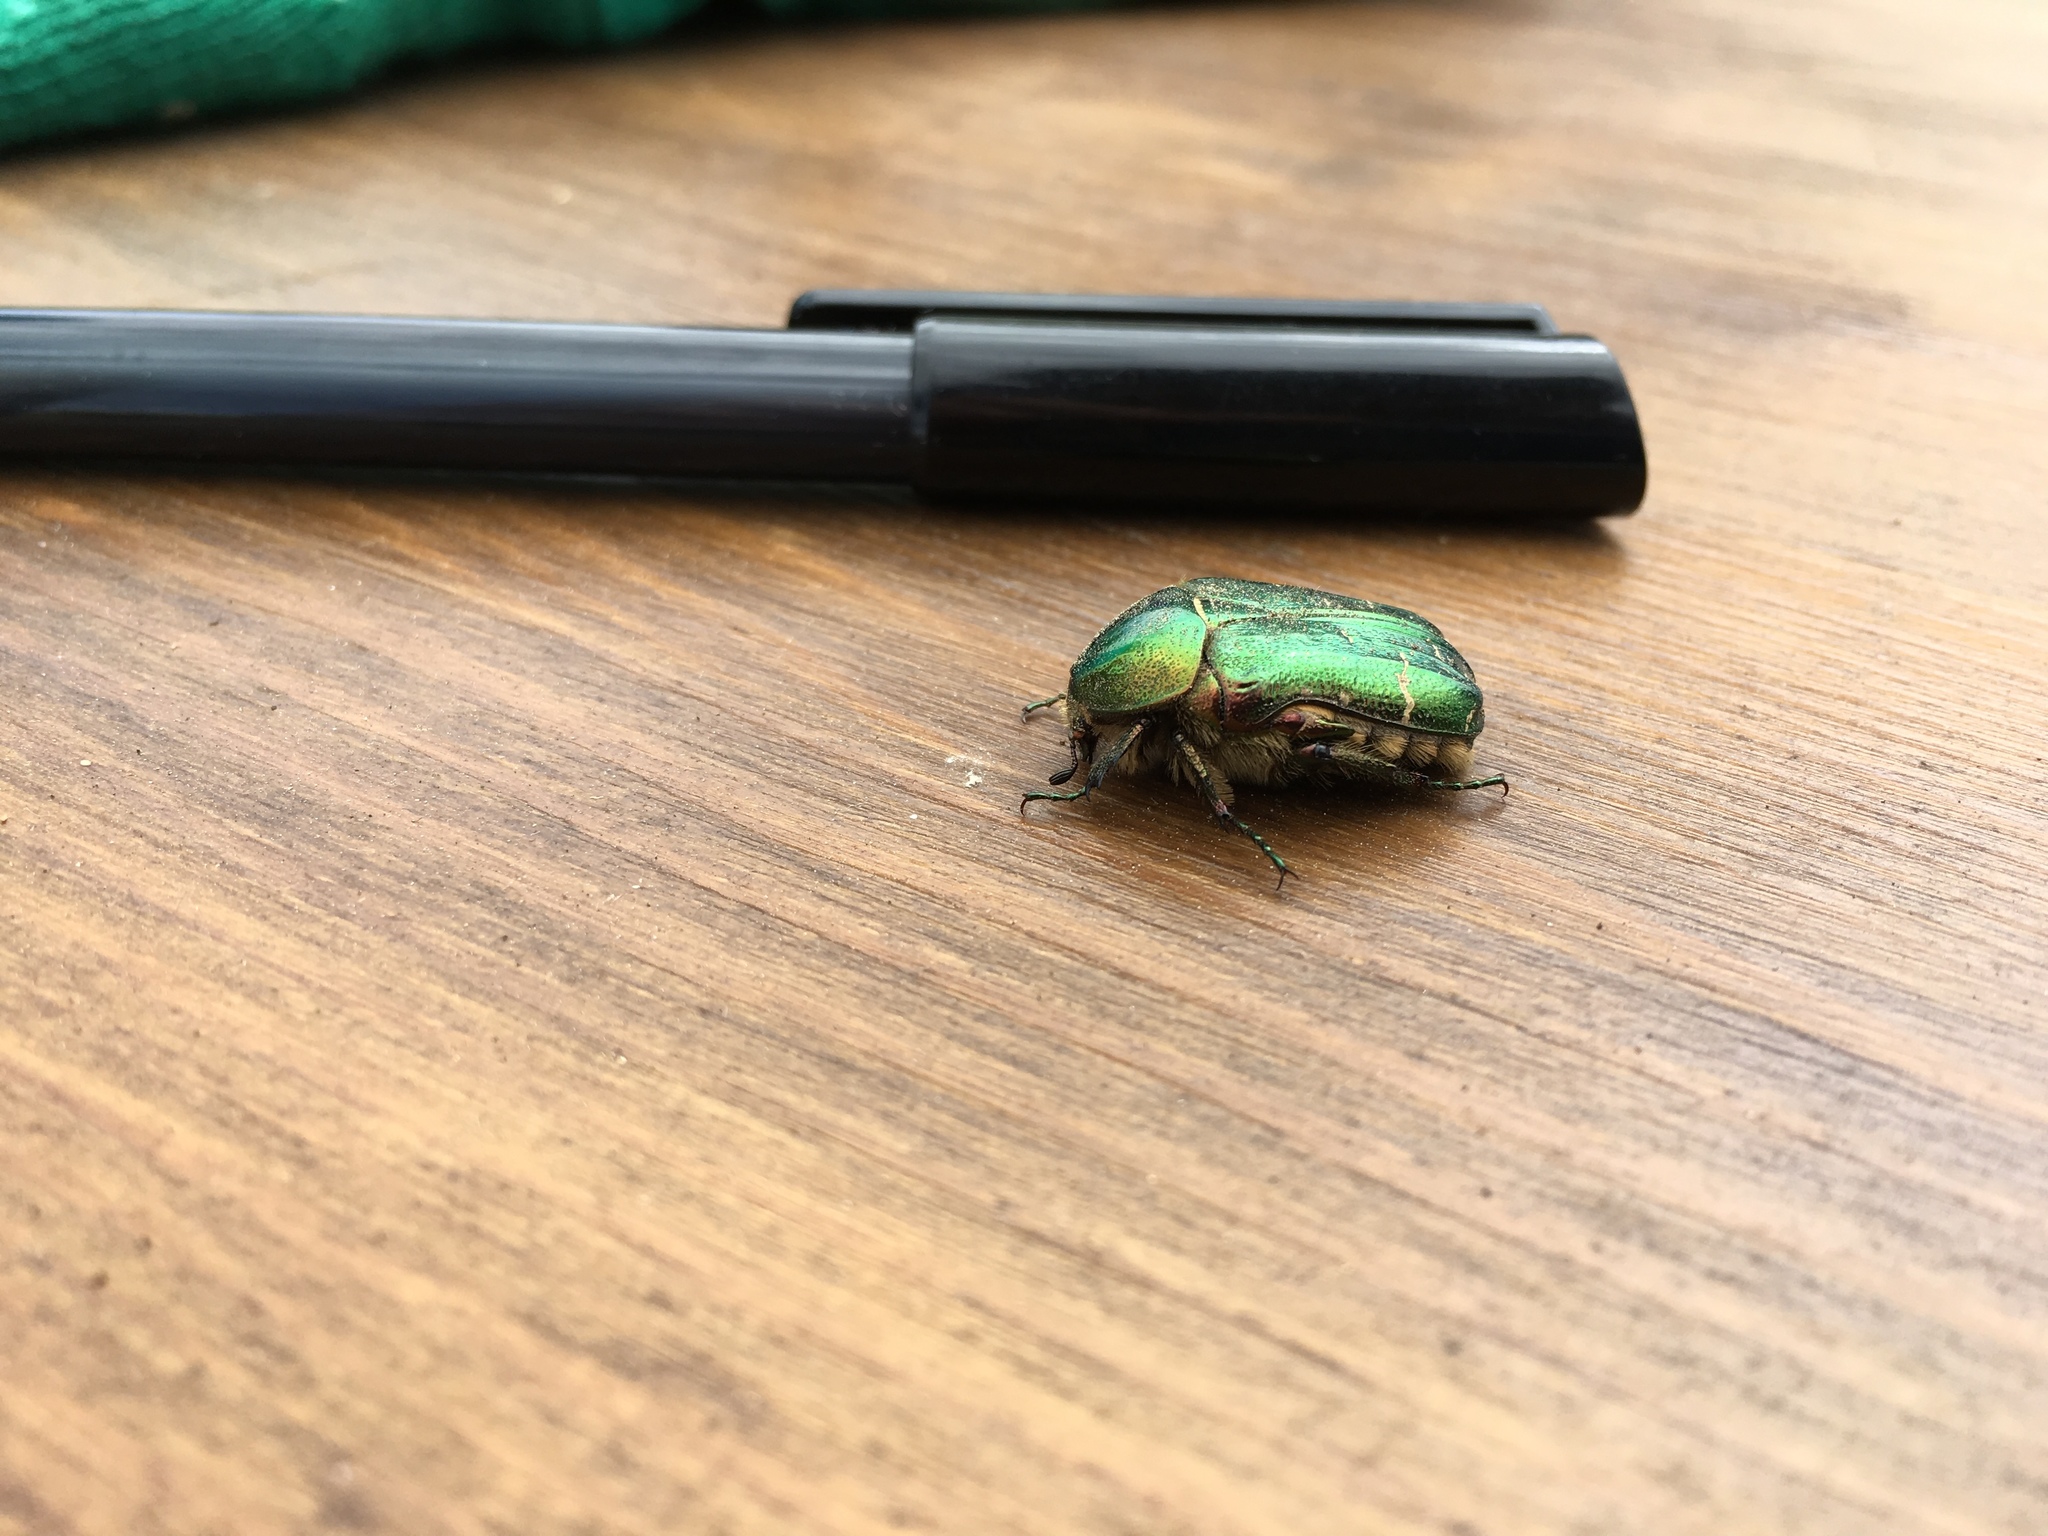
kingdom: Animalia
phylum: Arthropoda
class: Insecta
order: Coleoptera
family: Scarabaeidae
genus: Cetonia
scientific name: Cetonia aurata
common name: Rose chafer
